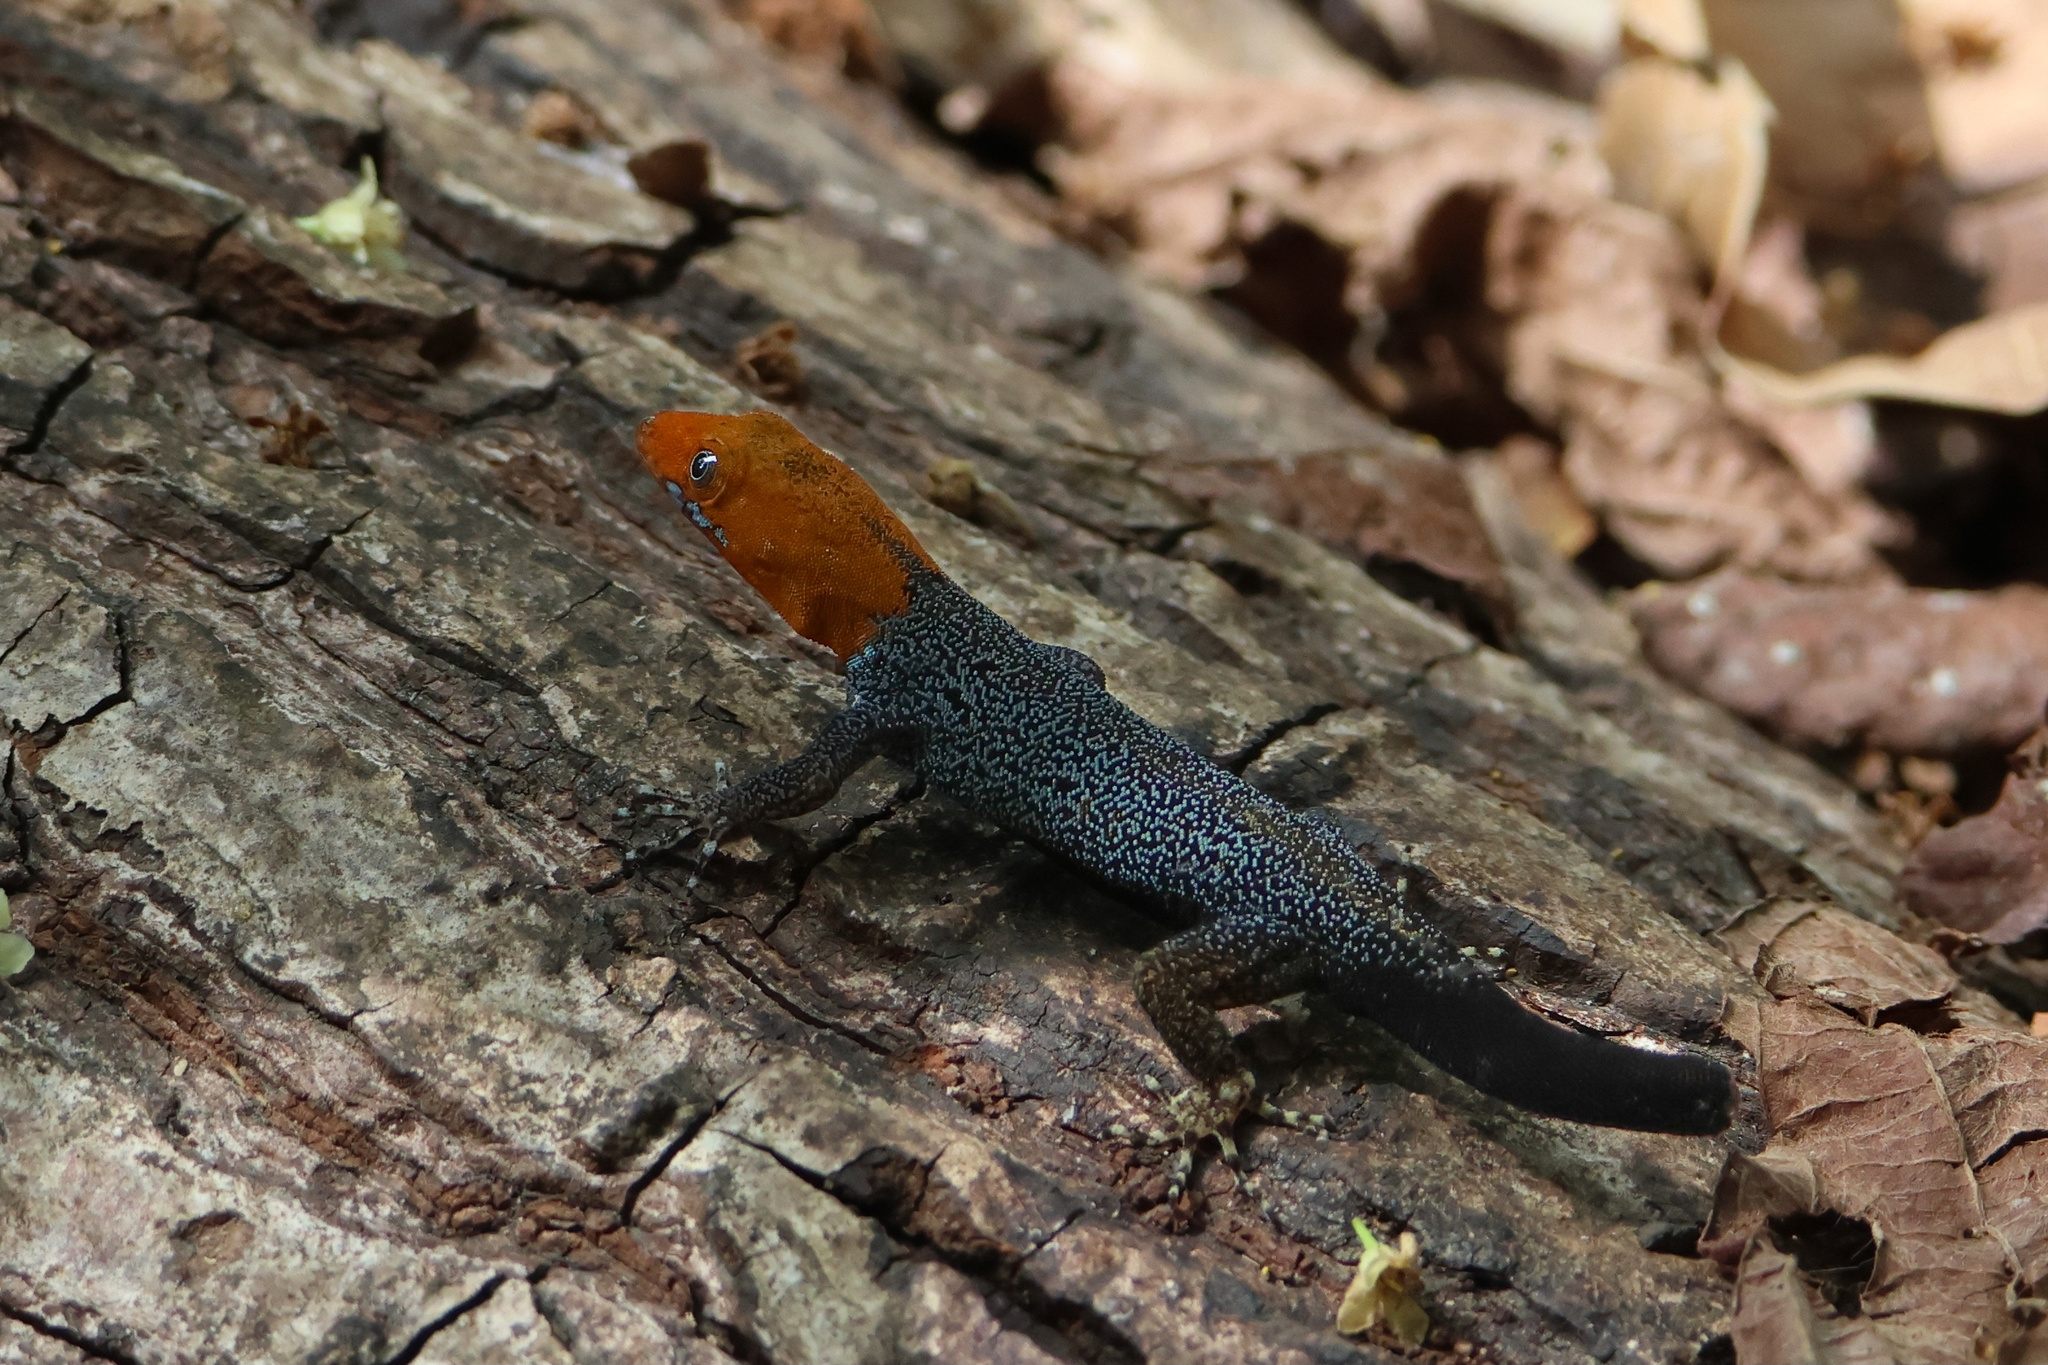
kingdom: Animalia
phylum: Chordata
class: Squamata
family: Sphaerodactylidae
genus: Gonatodes
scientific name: Gonatodes albogularis
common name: Yellow-headed gecko
